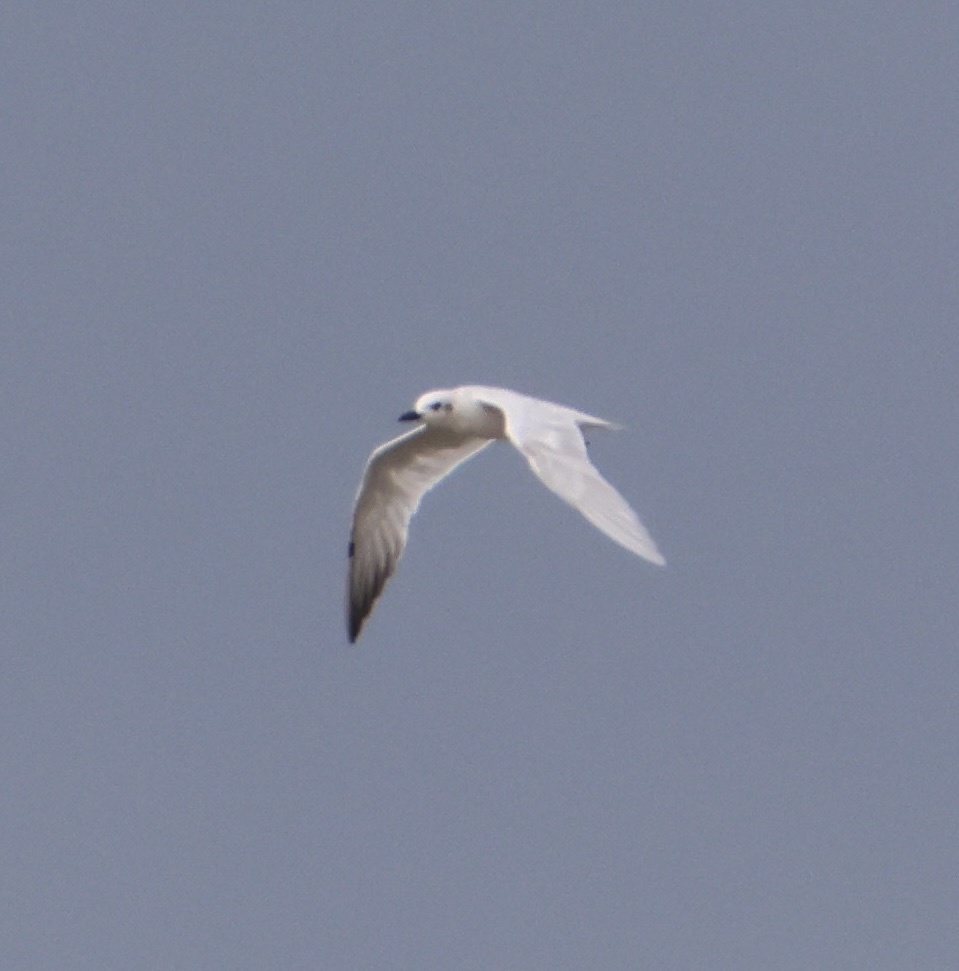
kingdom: Animalia
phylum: Chordata
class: Aves
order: Charadriiformes
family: Laridae
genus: Gelochelidon
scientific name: Gelochelidon nilotica
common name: Gull-billed tern
